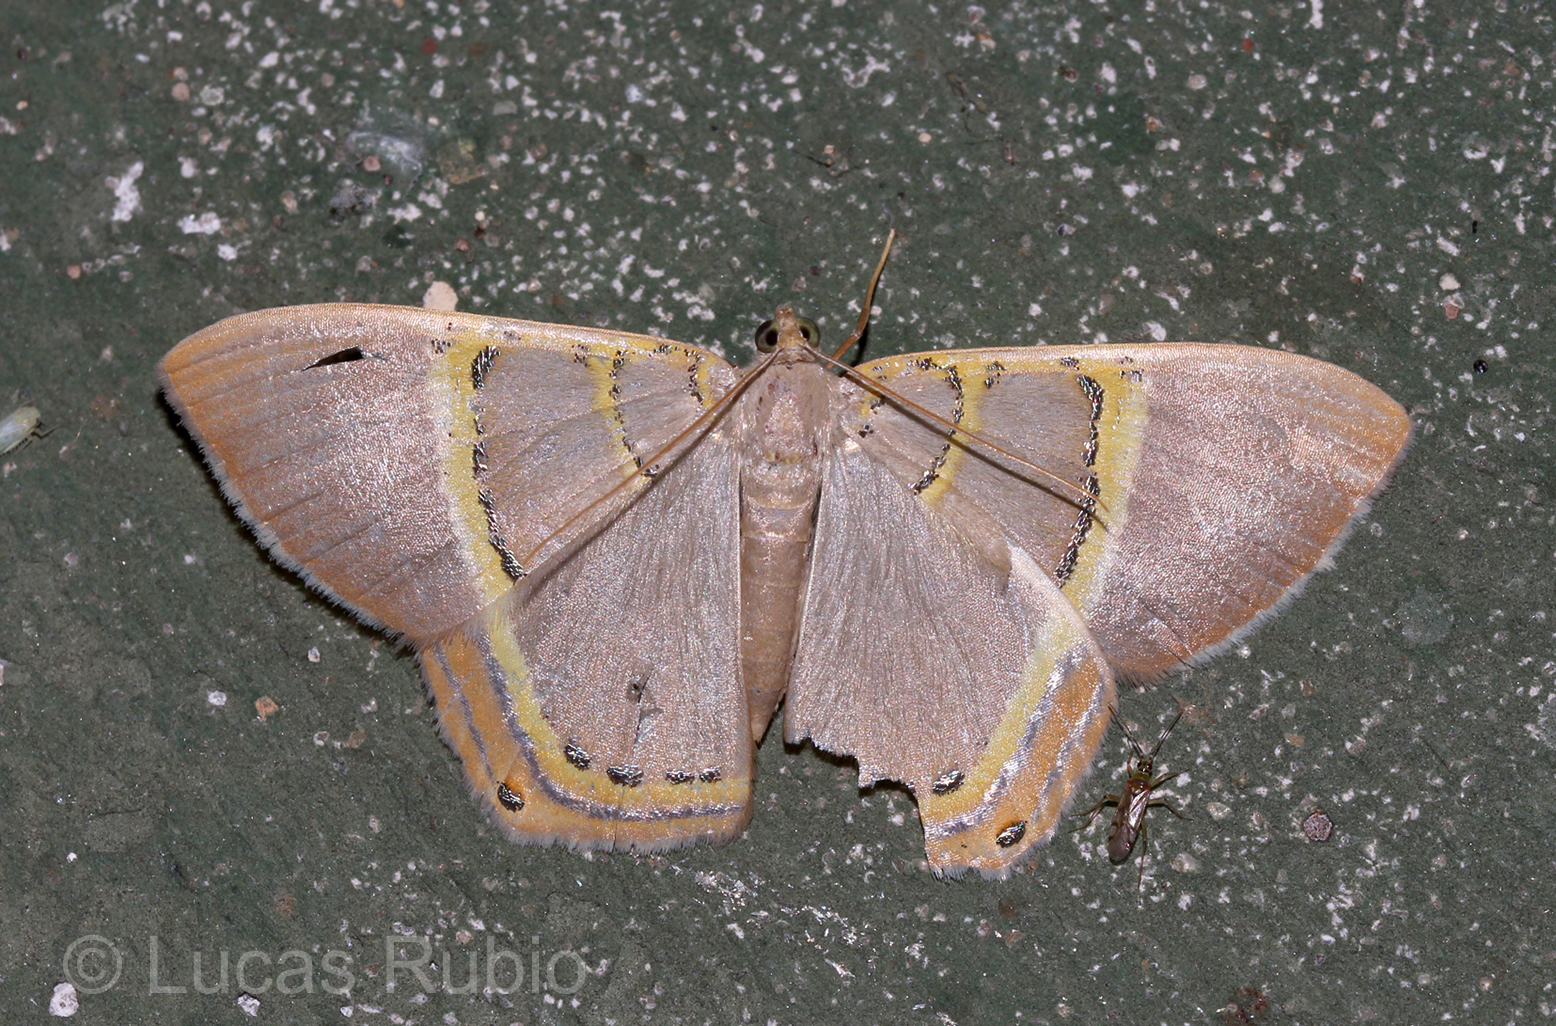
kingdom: Animalia
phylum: Arthropoda
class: Insecta
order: Lepidoptera
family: Geometridae
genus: Phrygionis
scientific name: Phrygionis polita
